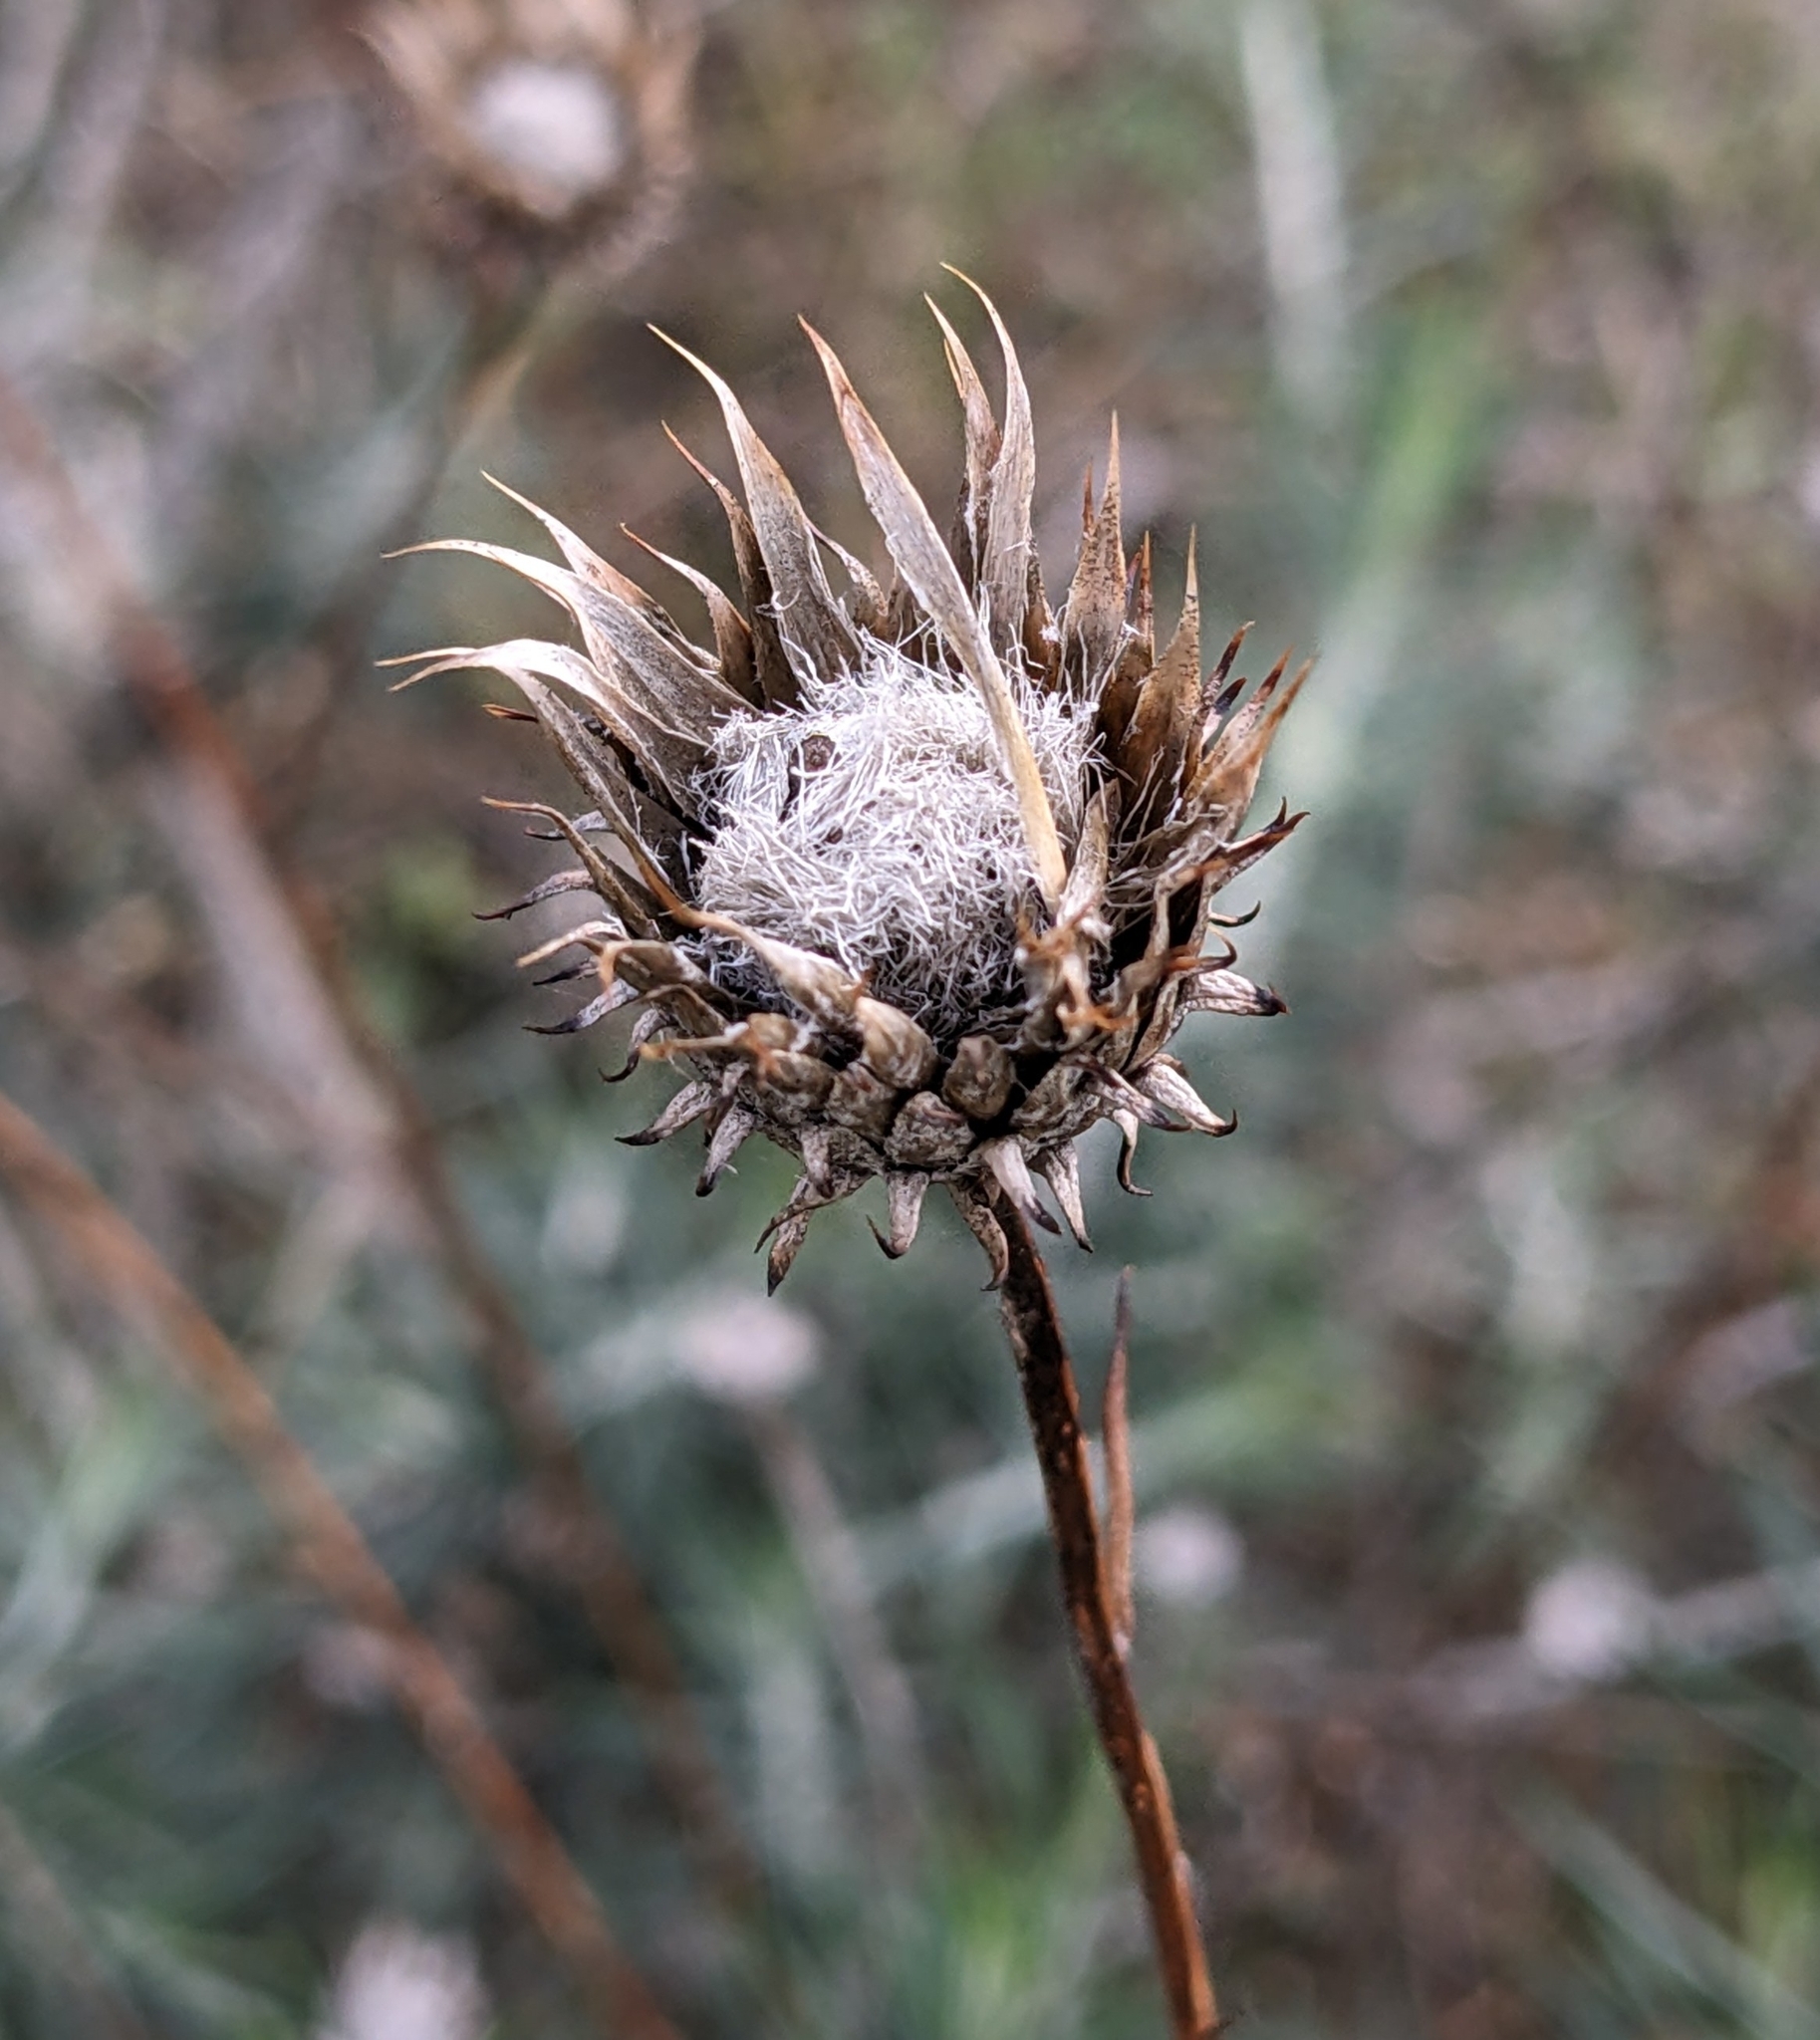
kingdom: Plantae
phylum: Tracheophyta
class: Magnoliopsida
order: Asterales
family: Asteraceae
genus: Ptilostemon
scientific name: Ptilostemon chamaepeuce
